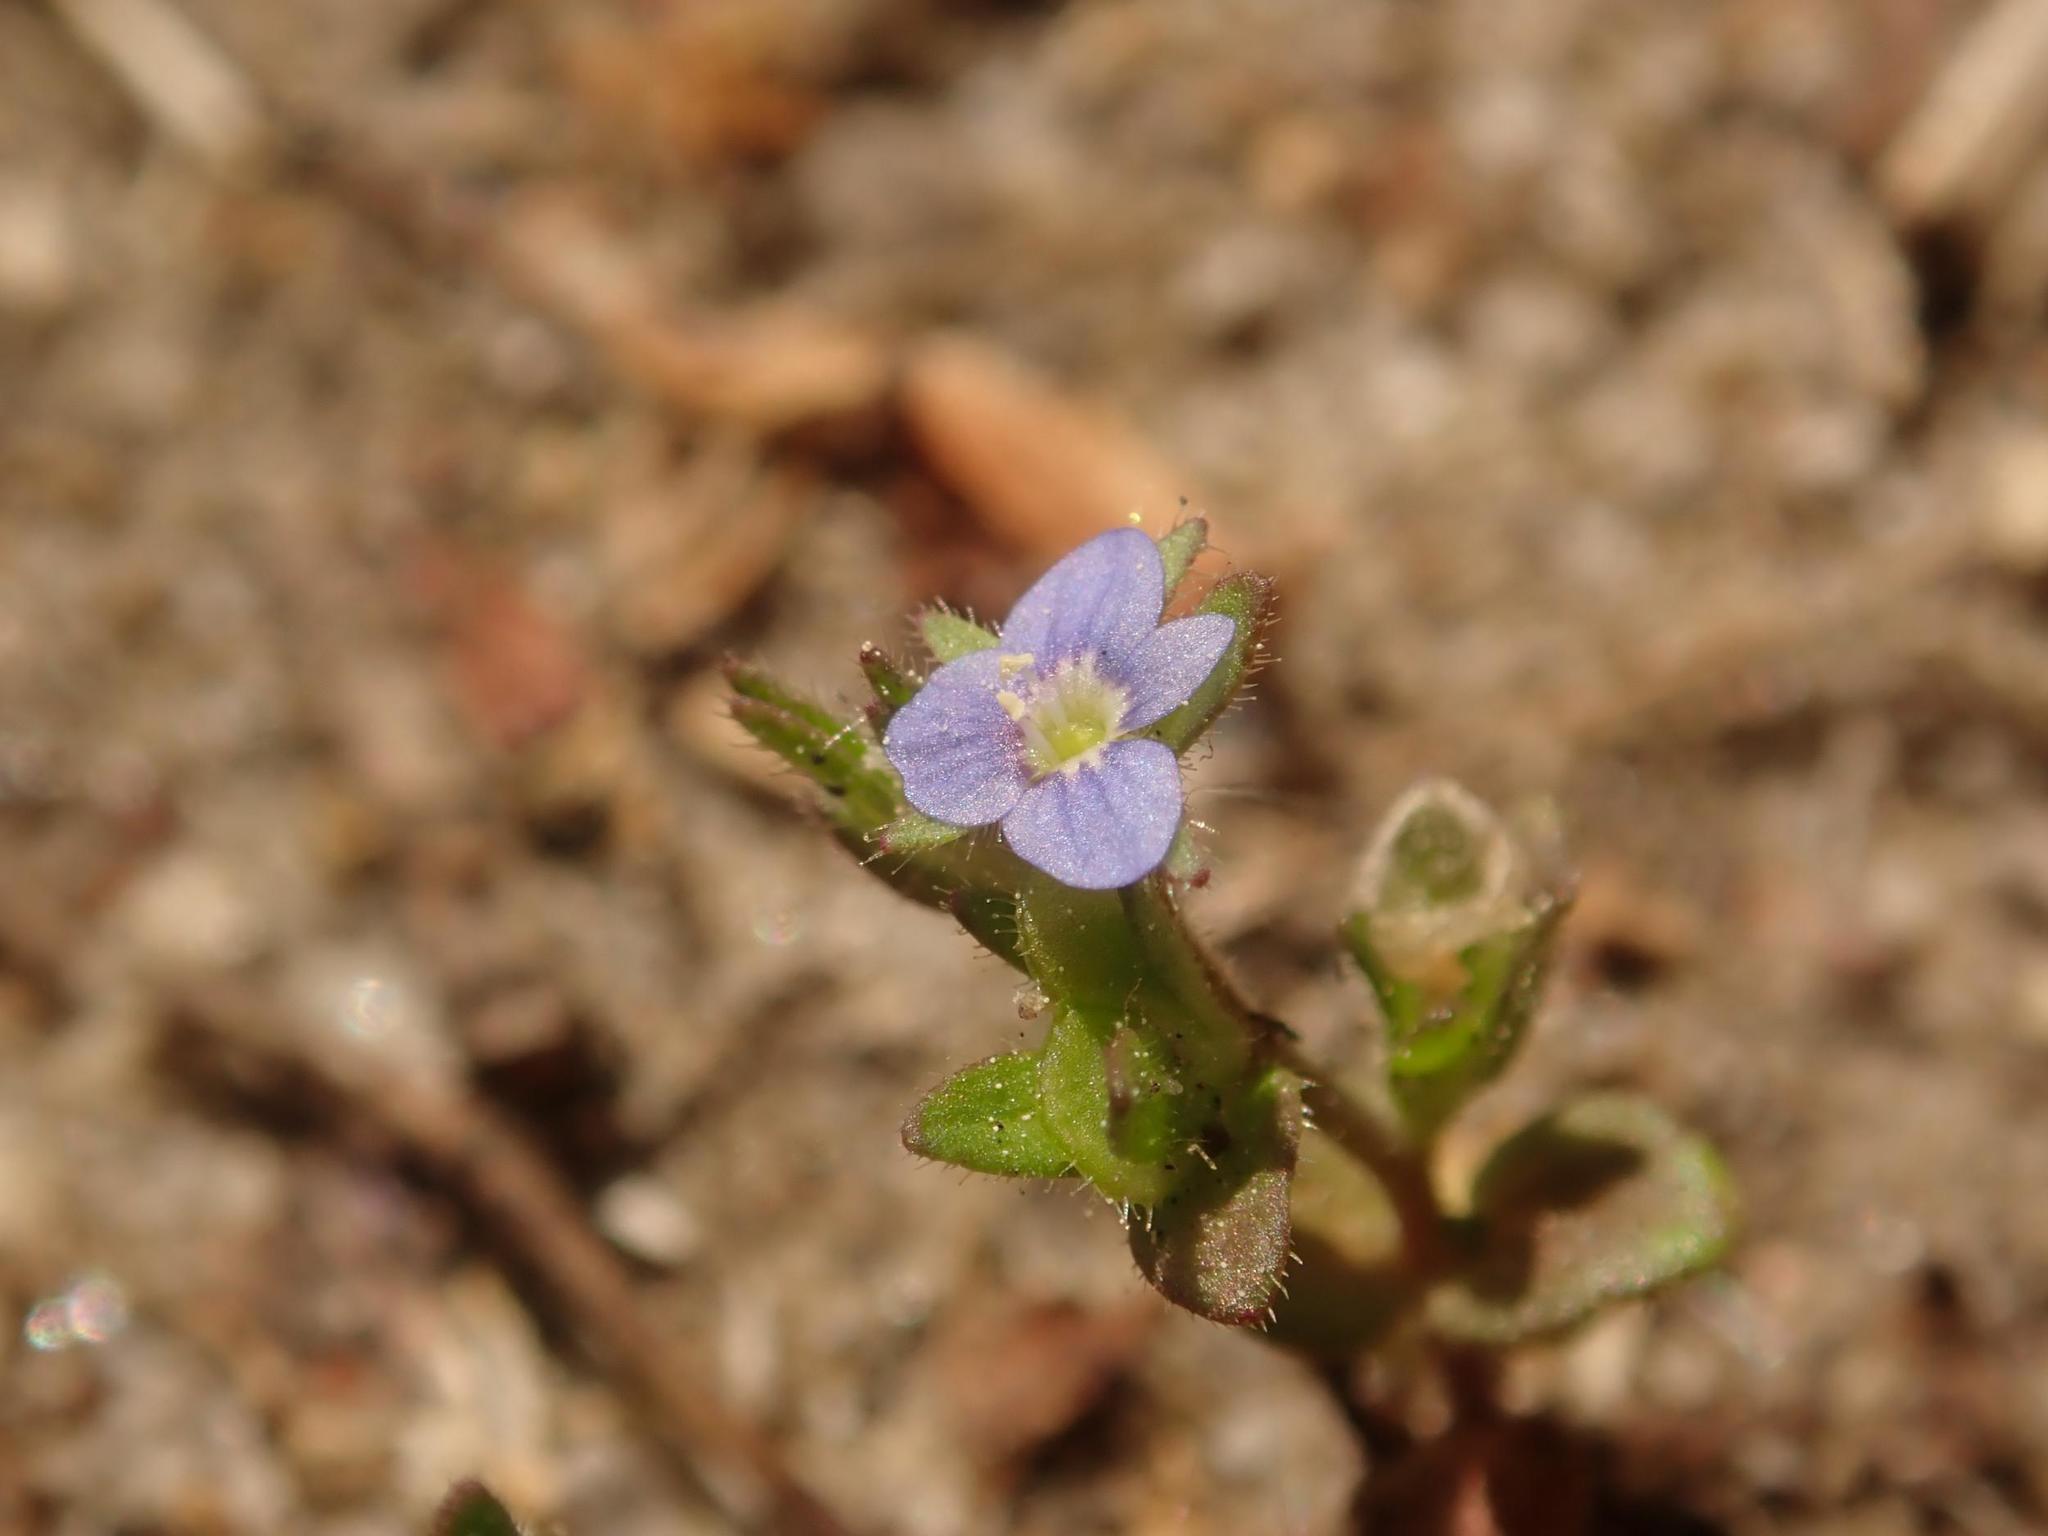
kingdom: Plantae
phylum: Tracheophyta
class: Magnoliopsida
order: Lamiales
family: Plantaginaceae
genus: Veronica
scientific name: Veronica arvensis
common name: Corn speedwell
